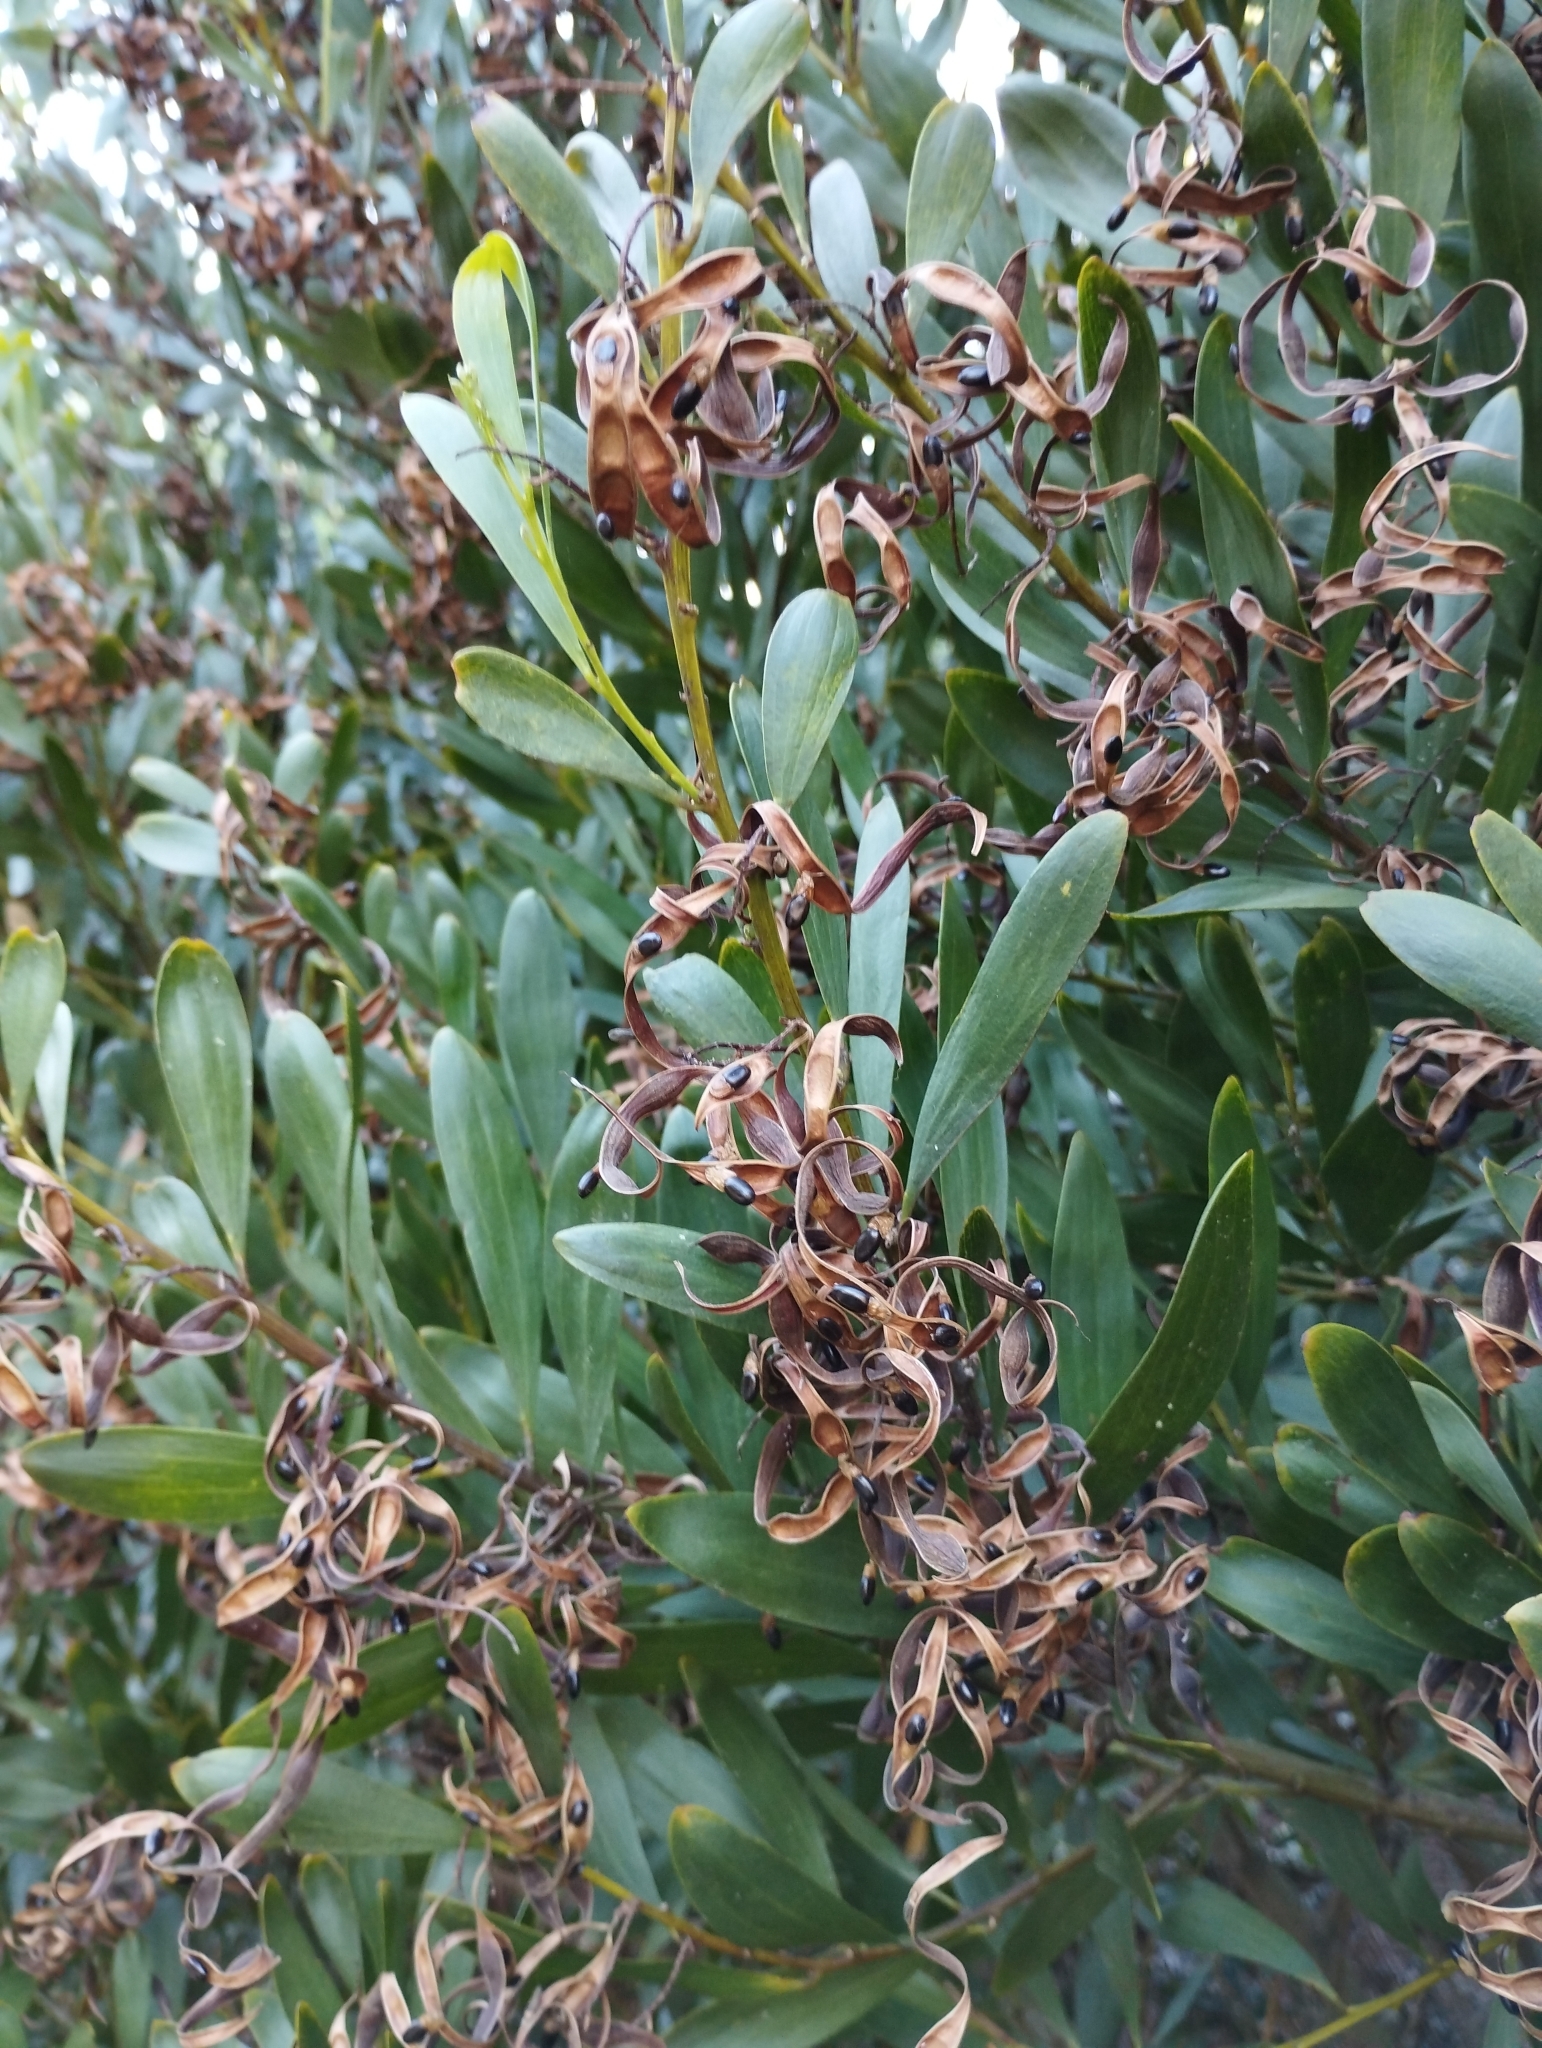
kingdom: Plantae
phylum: Tracheophyta
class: Magnoliopsida
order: Fabales
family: Fabaceae
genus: Acacia
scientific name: Acacia longifolia
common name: Sydney golden wattle
